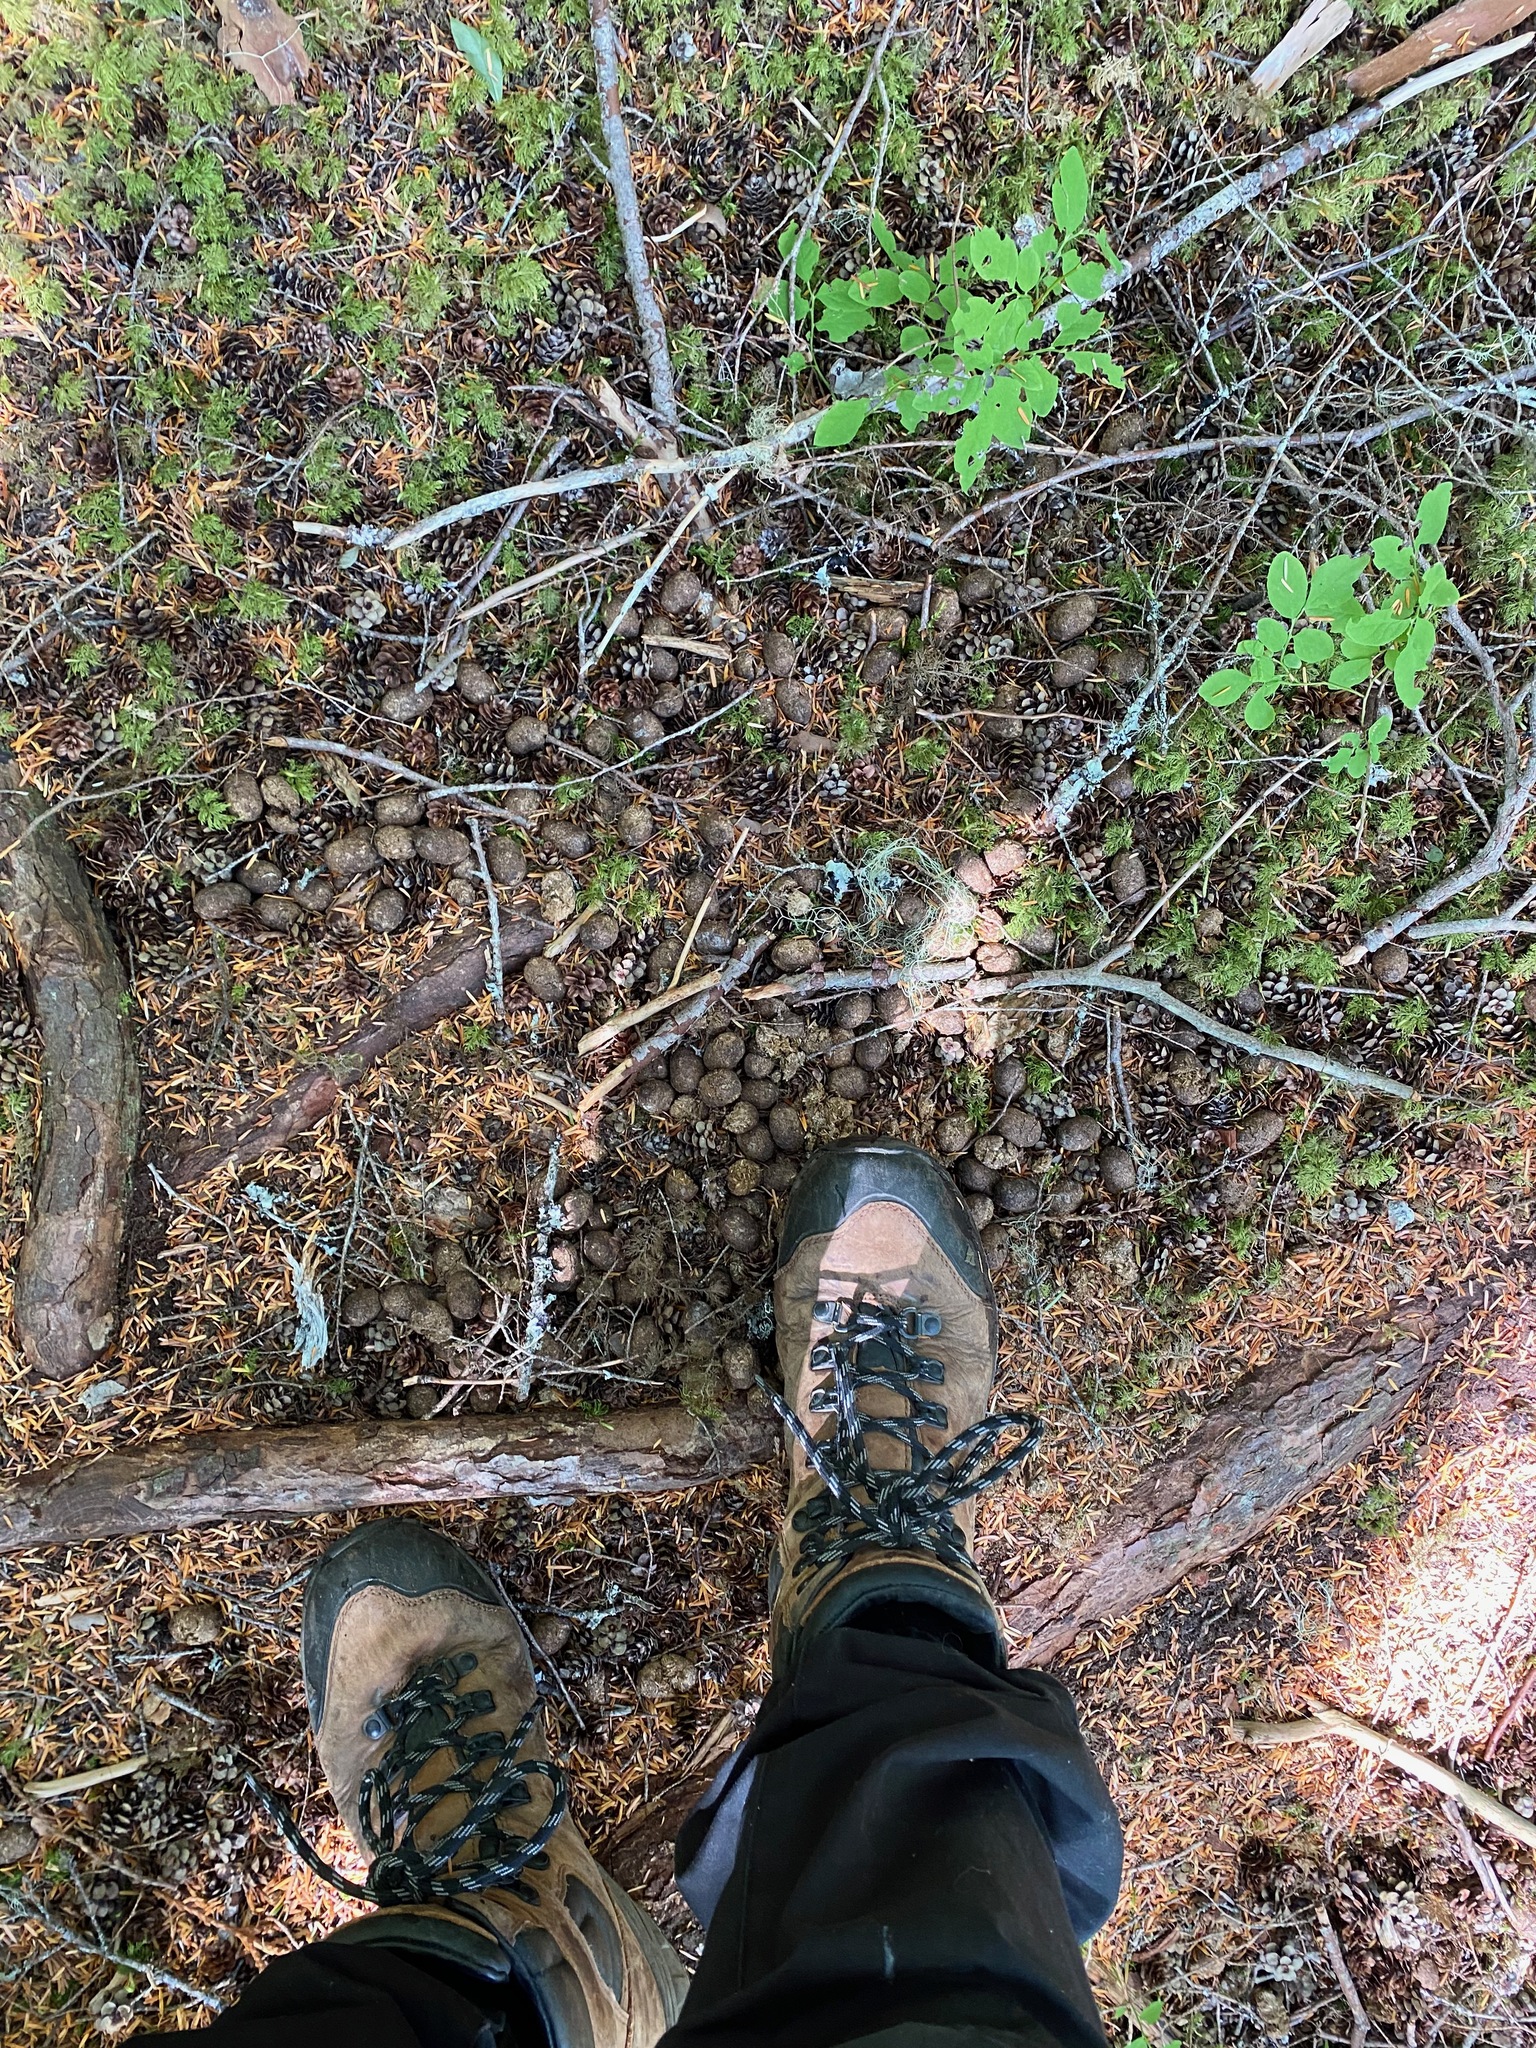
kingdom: Animalia
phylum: Chordata
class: Mammalia
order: Artiodactyla
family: Cervidae
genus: Alces
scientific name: Alces alces
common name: Moose
